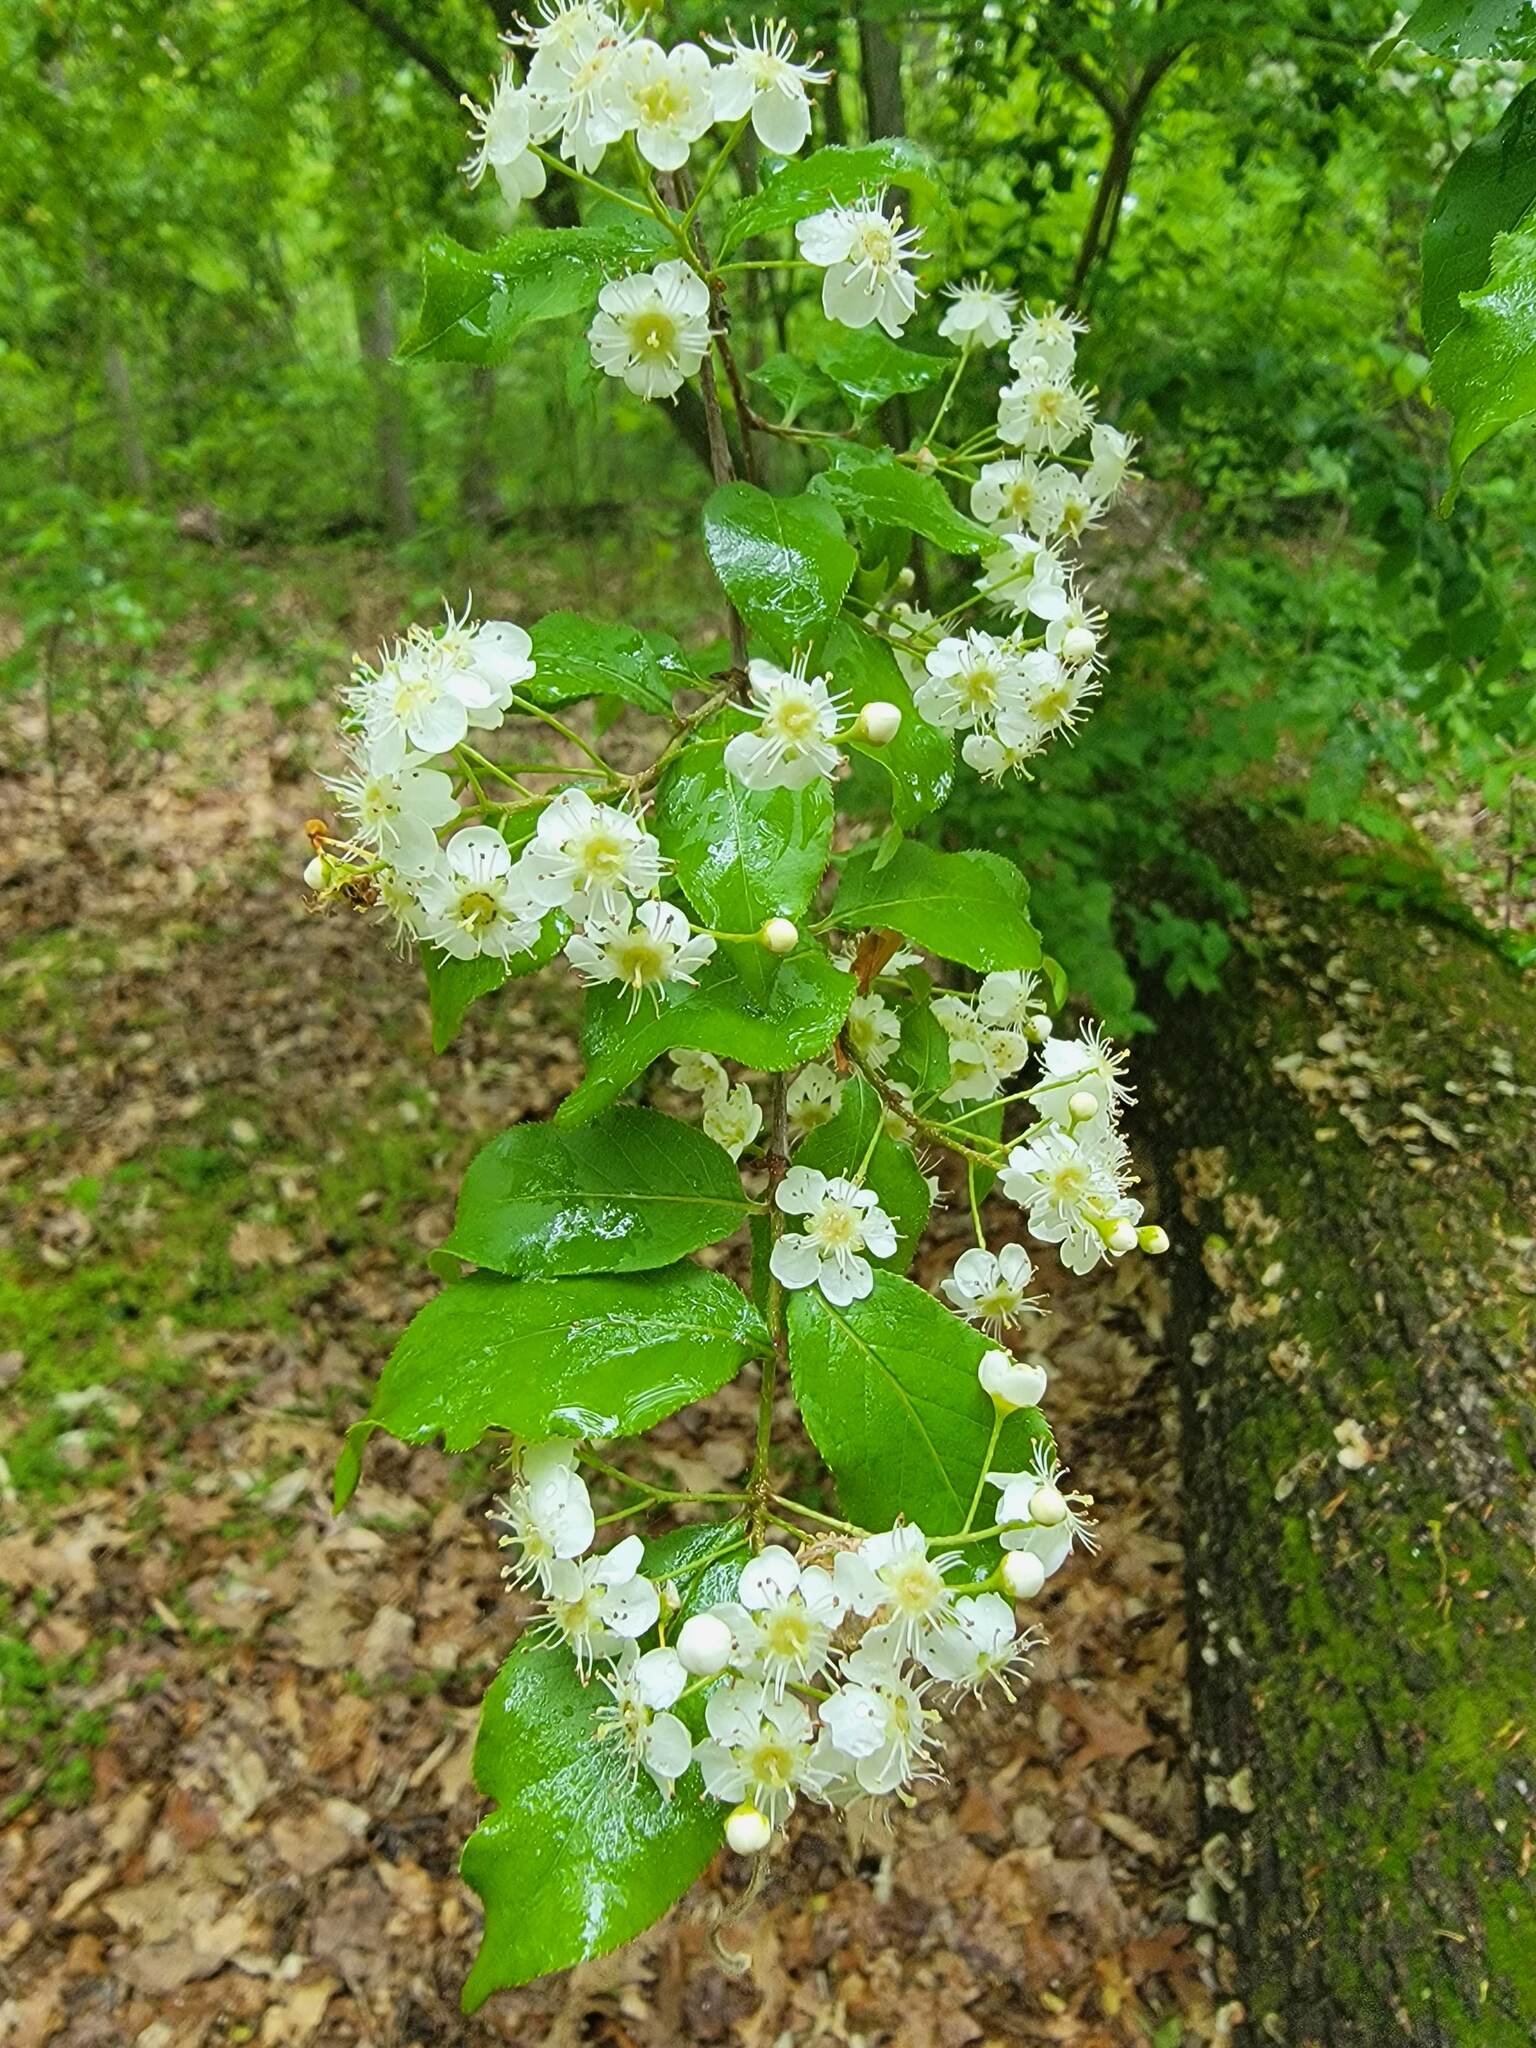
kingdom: Plantae
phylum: Tracheophyta
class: Magnoliopsida
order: Rosales
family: Rosaceae
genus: Pourthiaea
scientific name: Pourthiaea villosa
